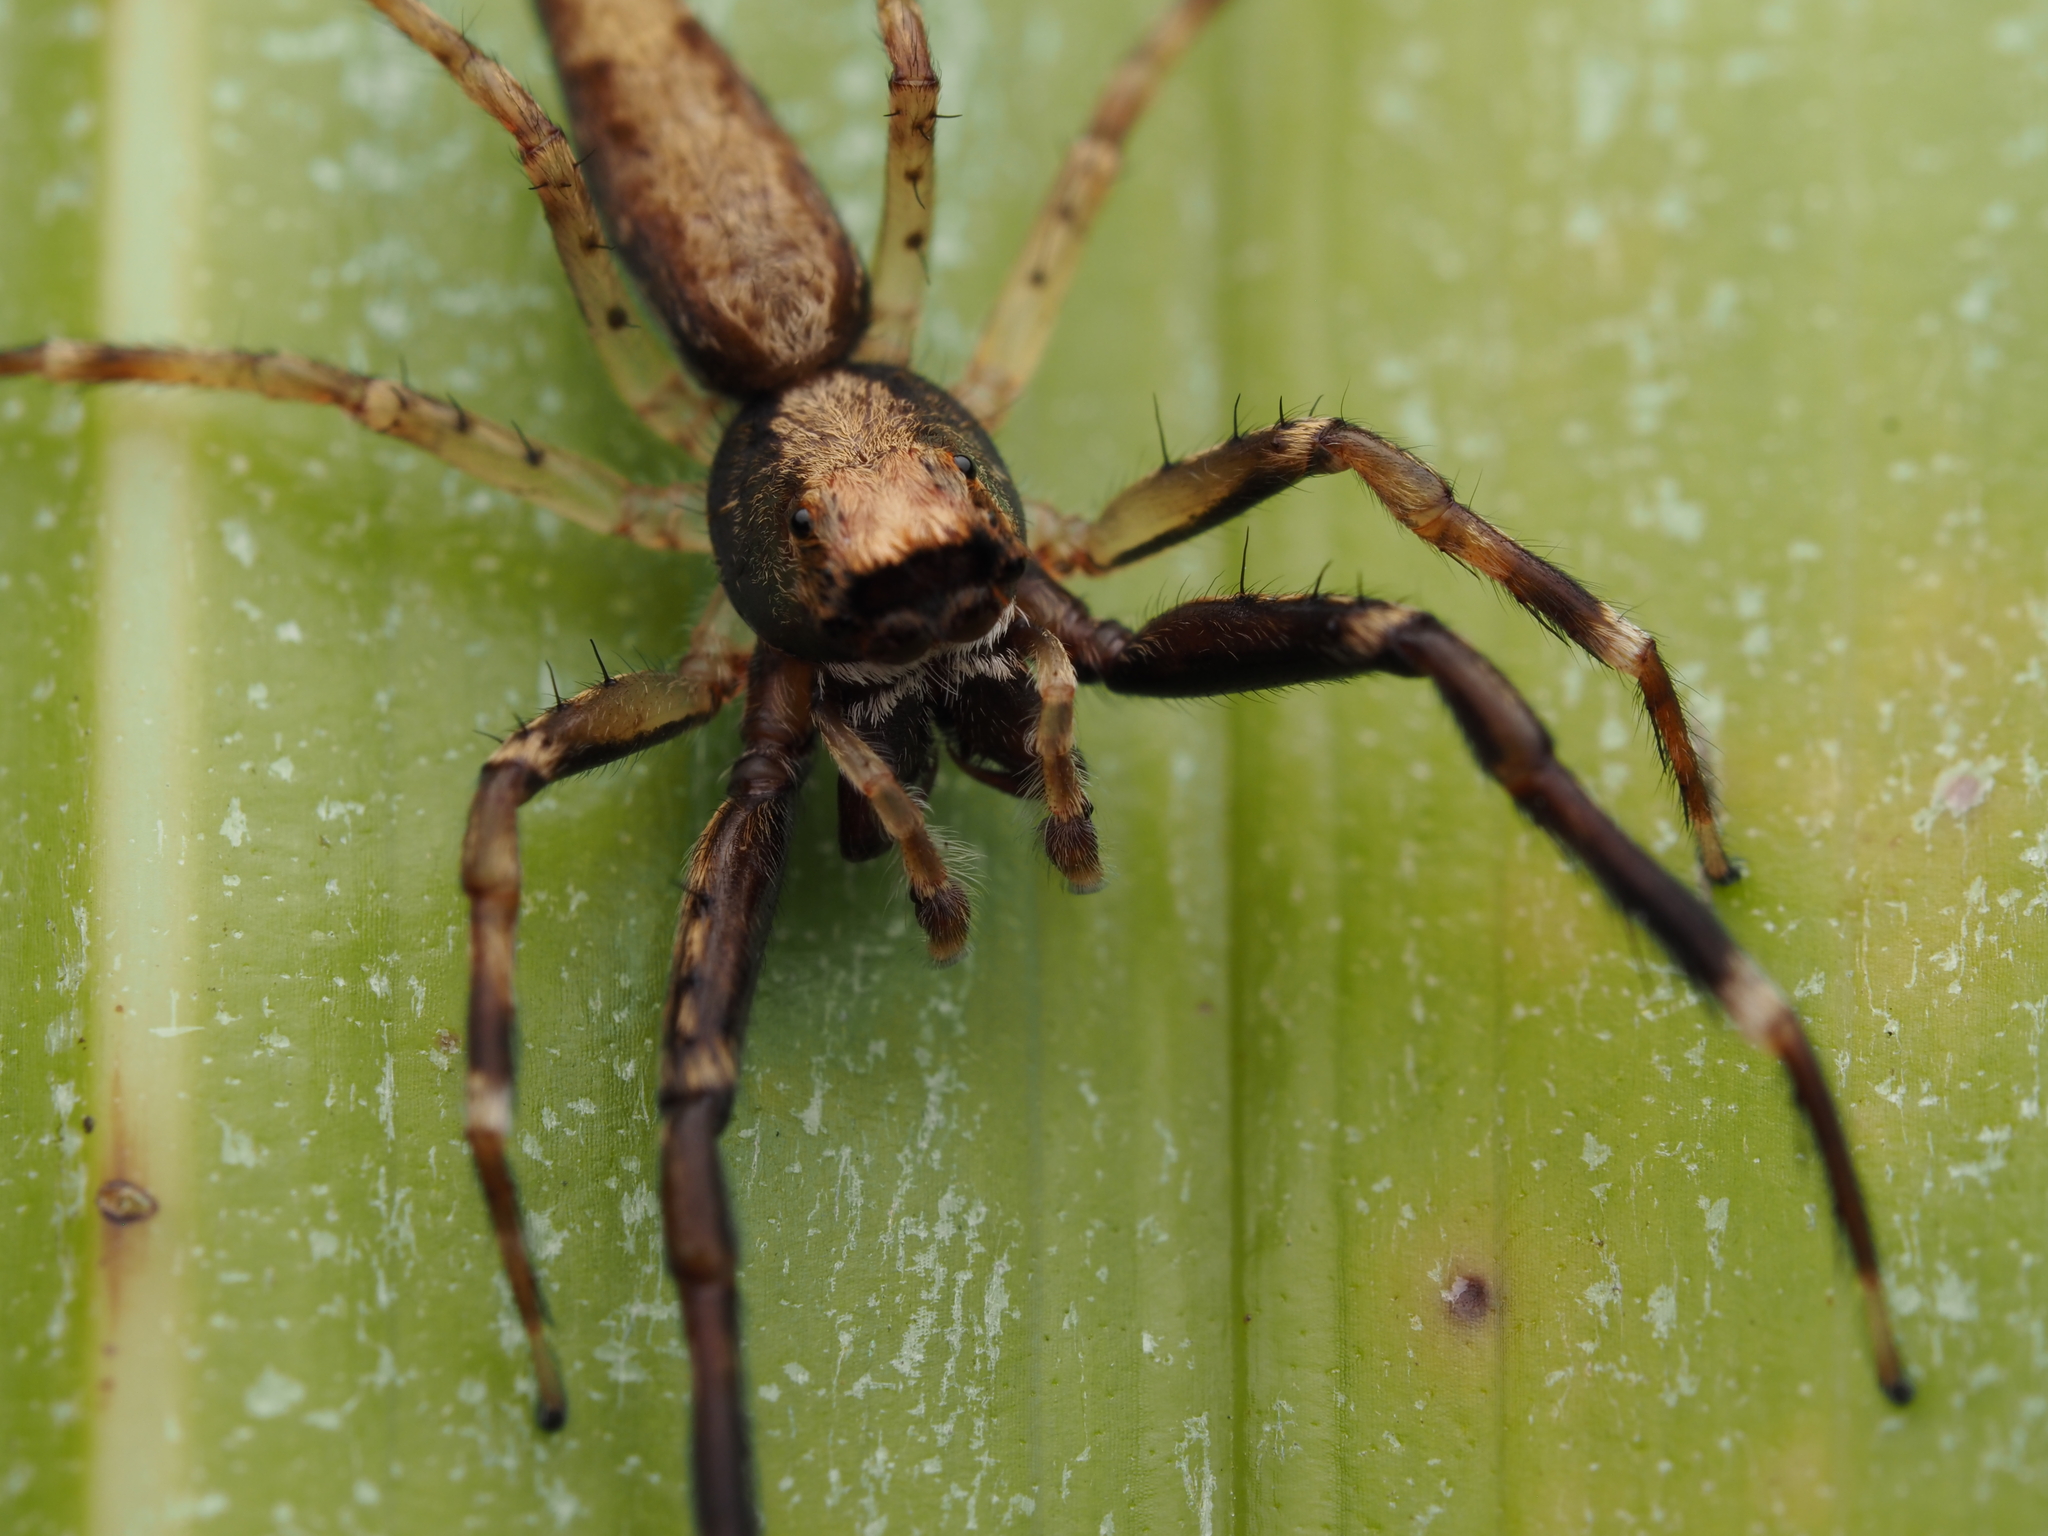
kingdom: Animalia
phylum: Arthropoda
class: Arachnida
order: Araneae
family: Salticidae
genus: Helpis
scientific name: Helpis minitabunda
